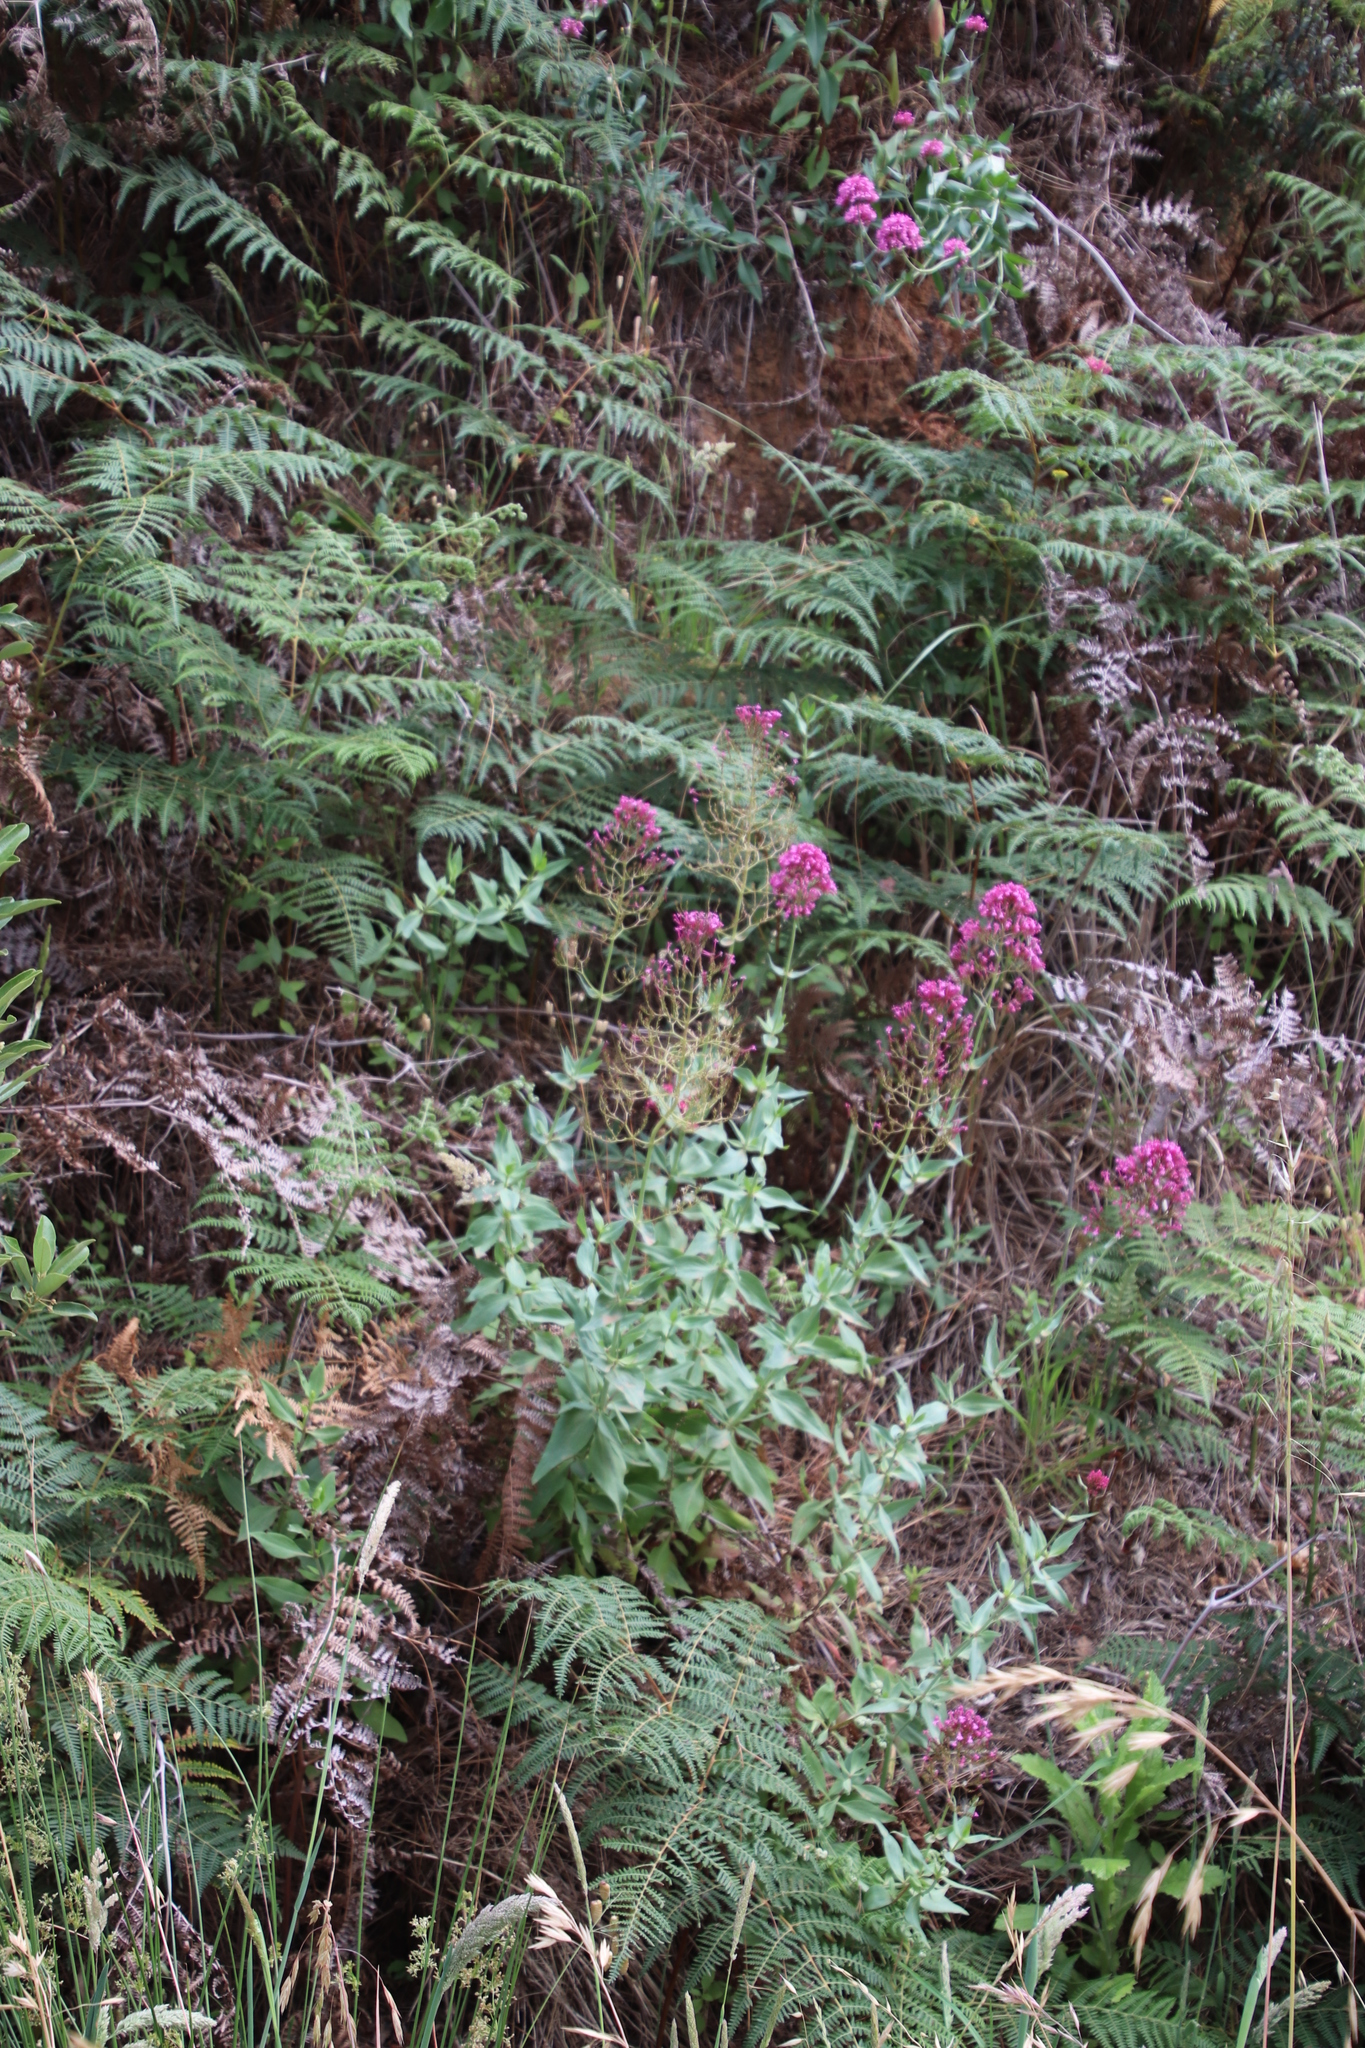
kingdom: Plantae
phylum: Tracheophyta
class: Magnoliopsida
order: Dipsacales
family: Caprifoliaceae
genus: Centranthus
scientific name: Centranthus ruber
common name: Red valerian
